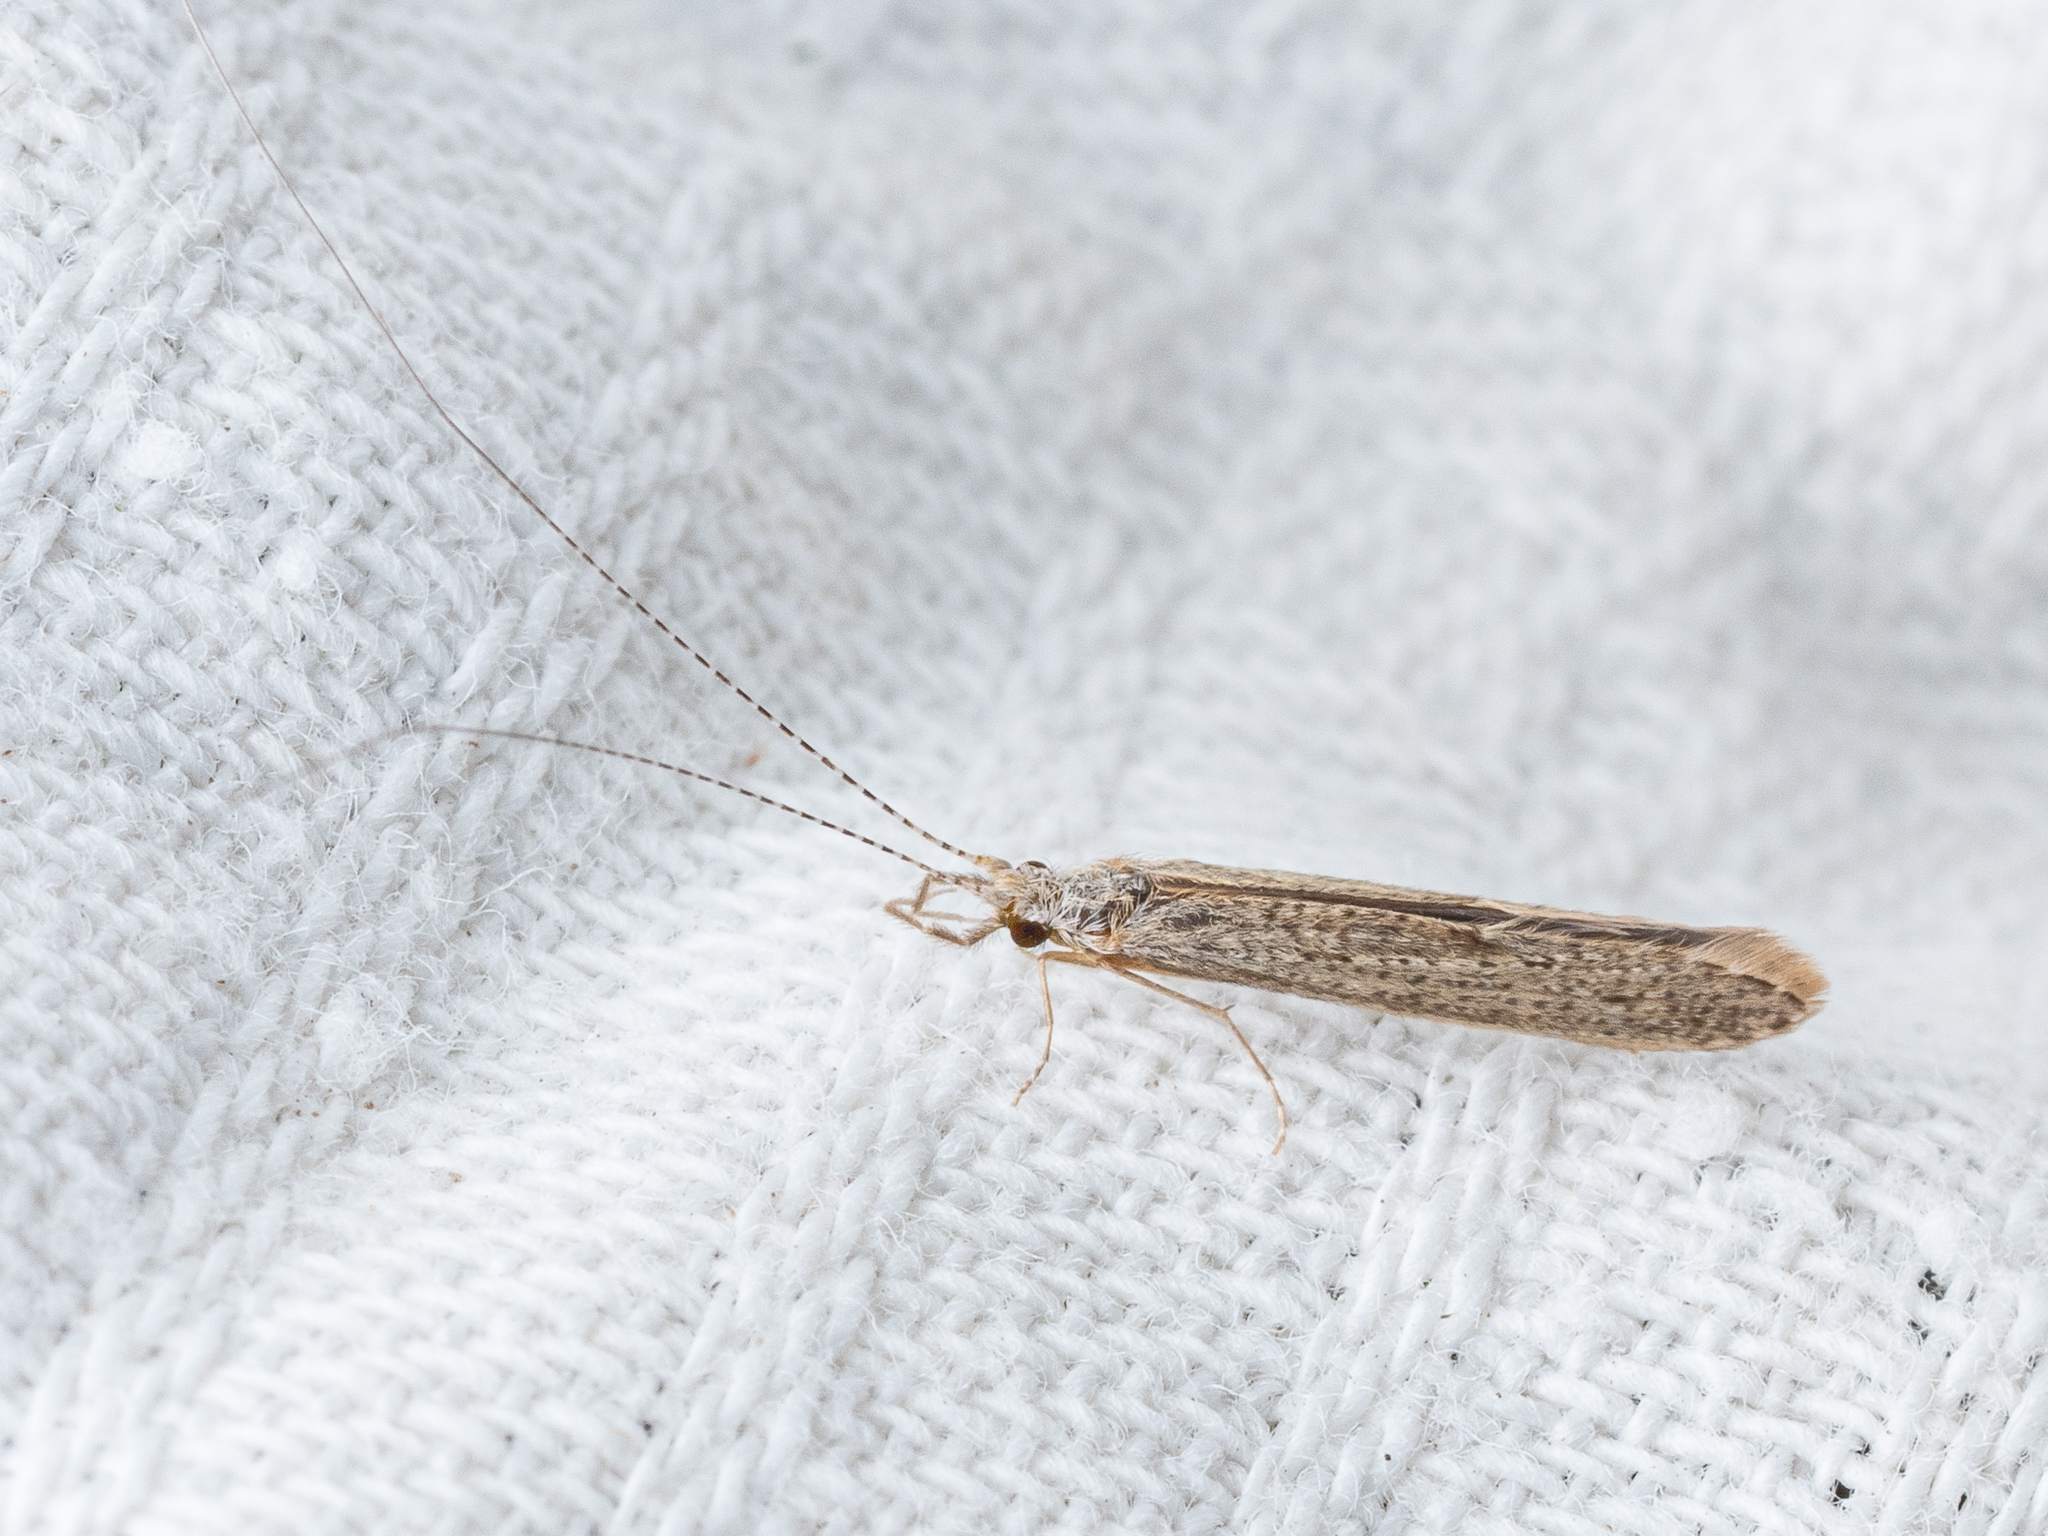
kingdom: Animalia
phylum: Arthropoda
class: Insecta
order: Trichoptera
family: Leptoceridae
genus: Leptocerus
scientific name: Leptocerus tineiformis
